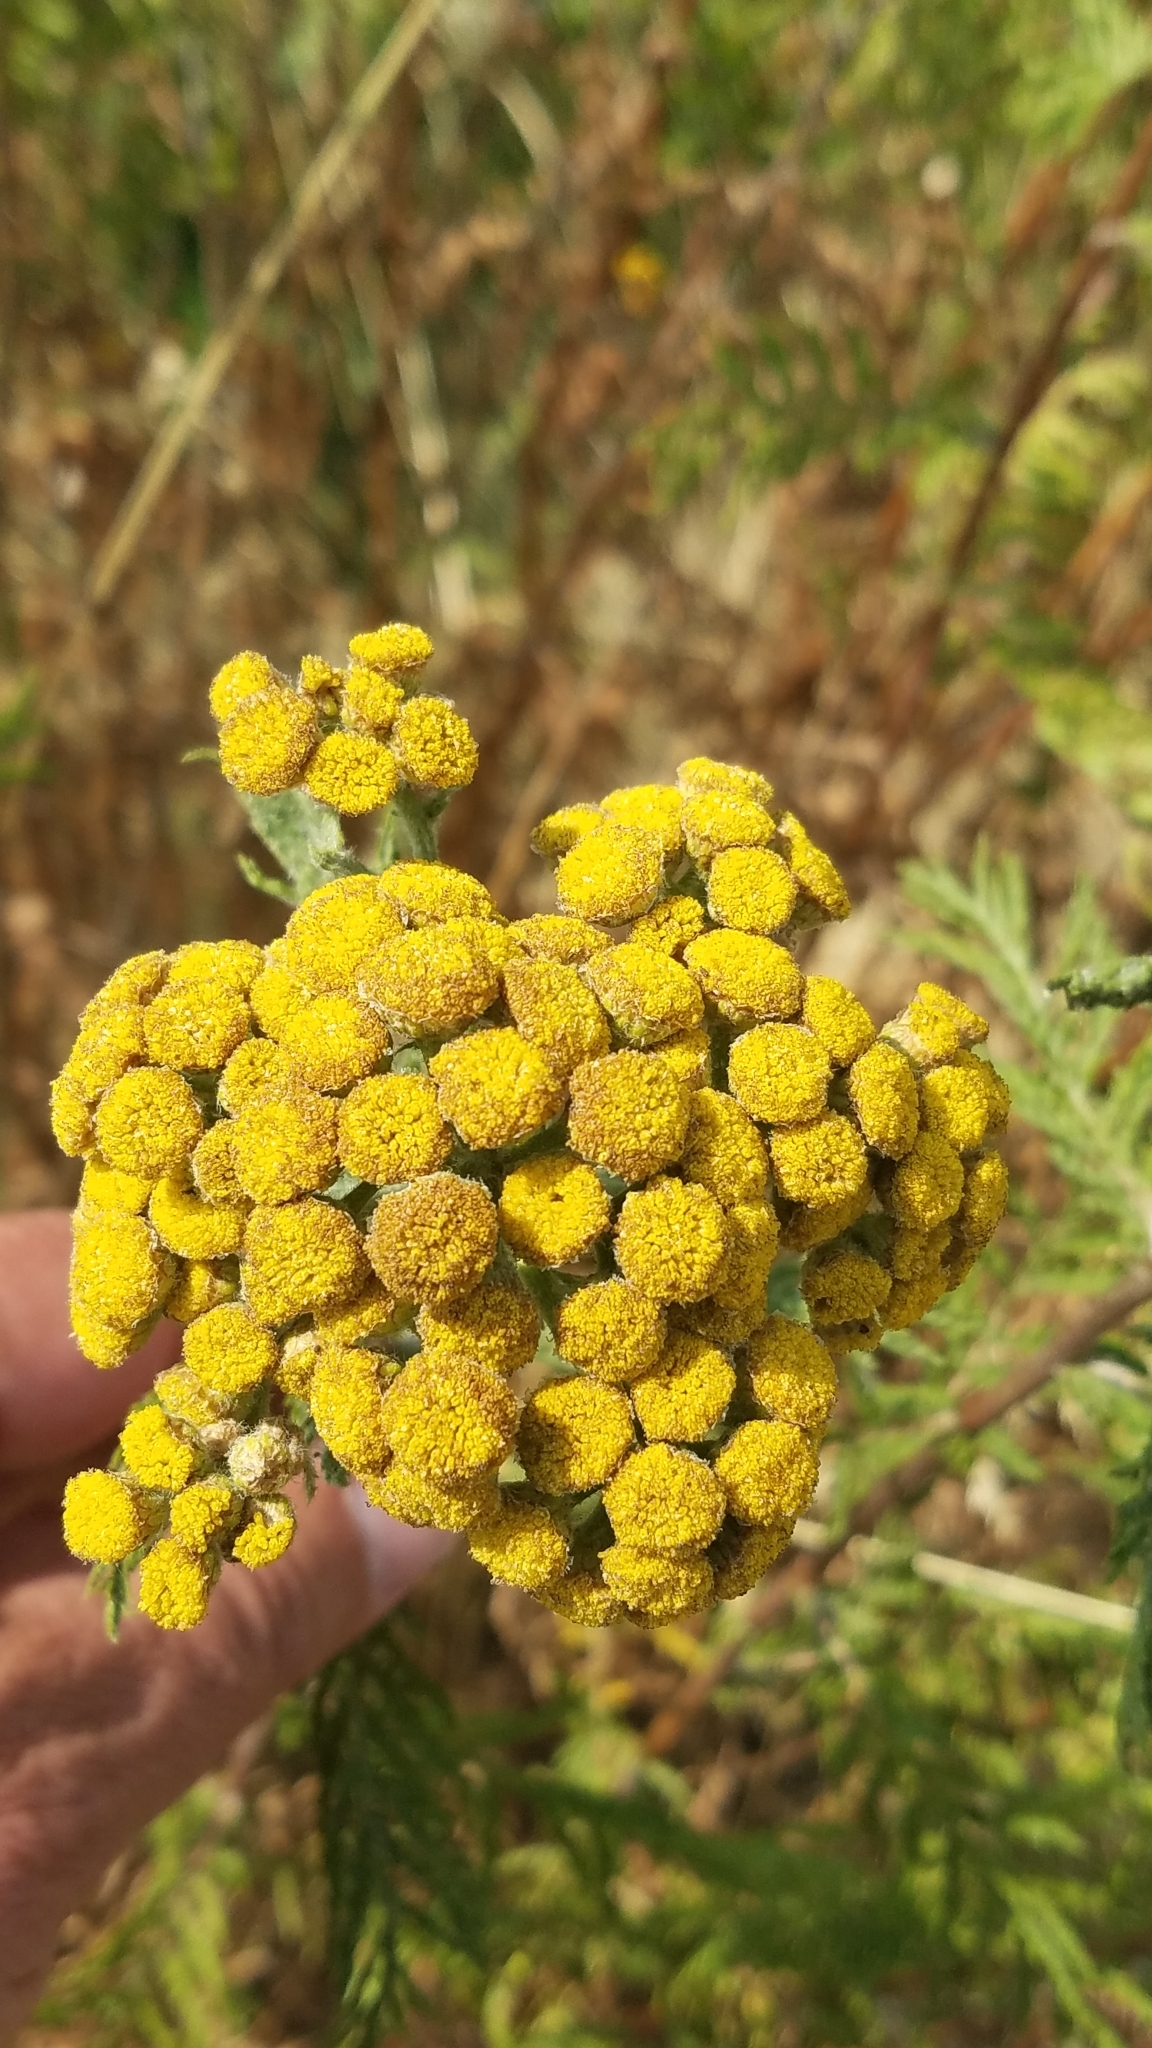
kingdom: Plantae
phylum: Tracheophyta
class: Magnoliopsida
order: Asterales
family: Asteraceae
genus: Tanacetum
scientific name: Tanacetum vulgare
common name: Common tansy
